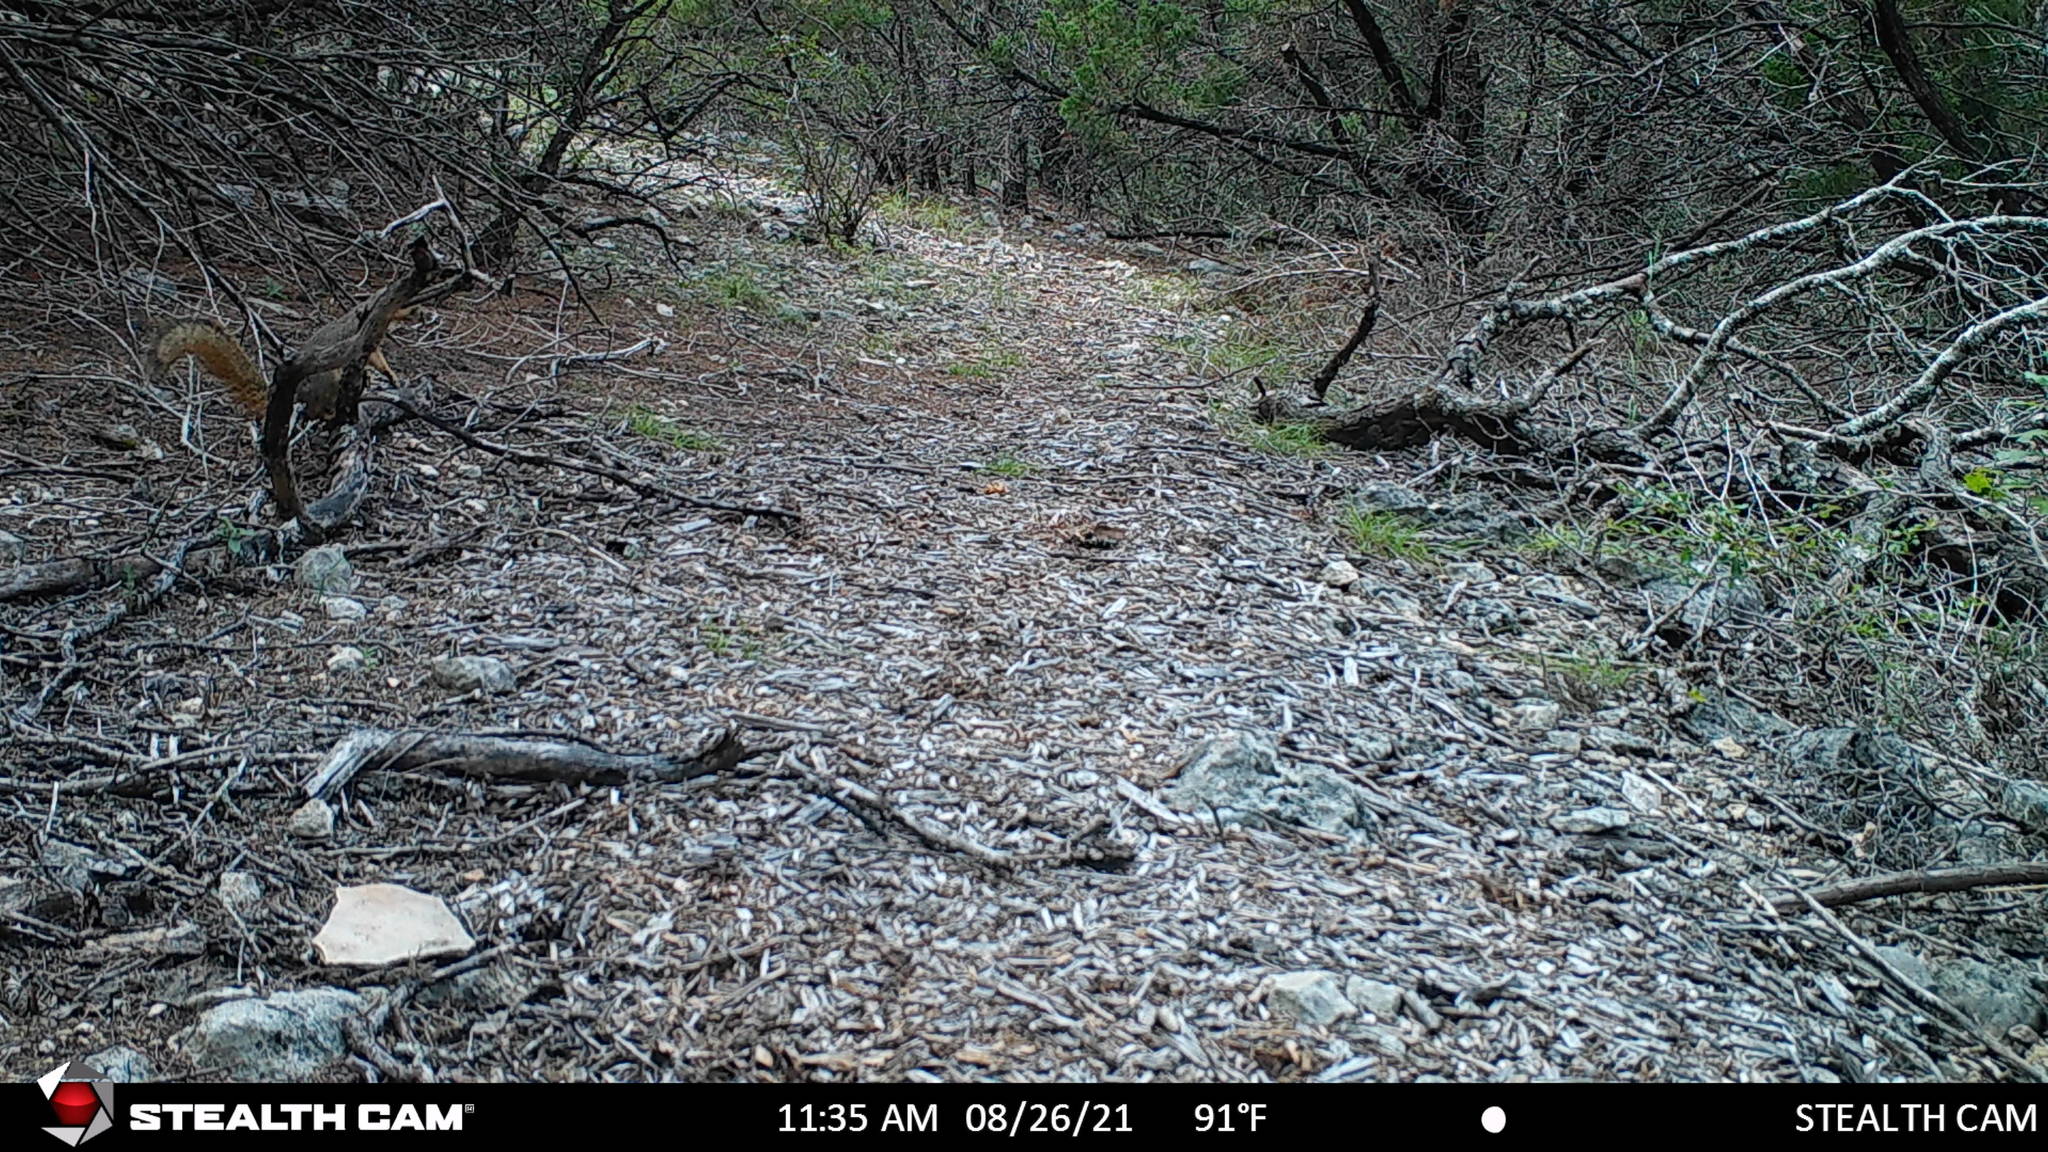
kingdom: Animalia
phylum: Chordata
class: Mammalia
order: Rodentia
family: Sciuridae
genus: Sciurus
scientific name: Sciurus niger
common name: Fox squirrel
